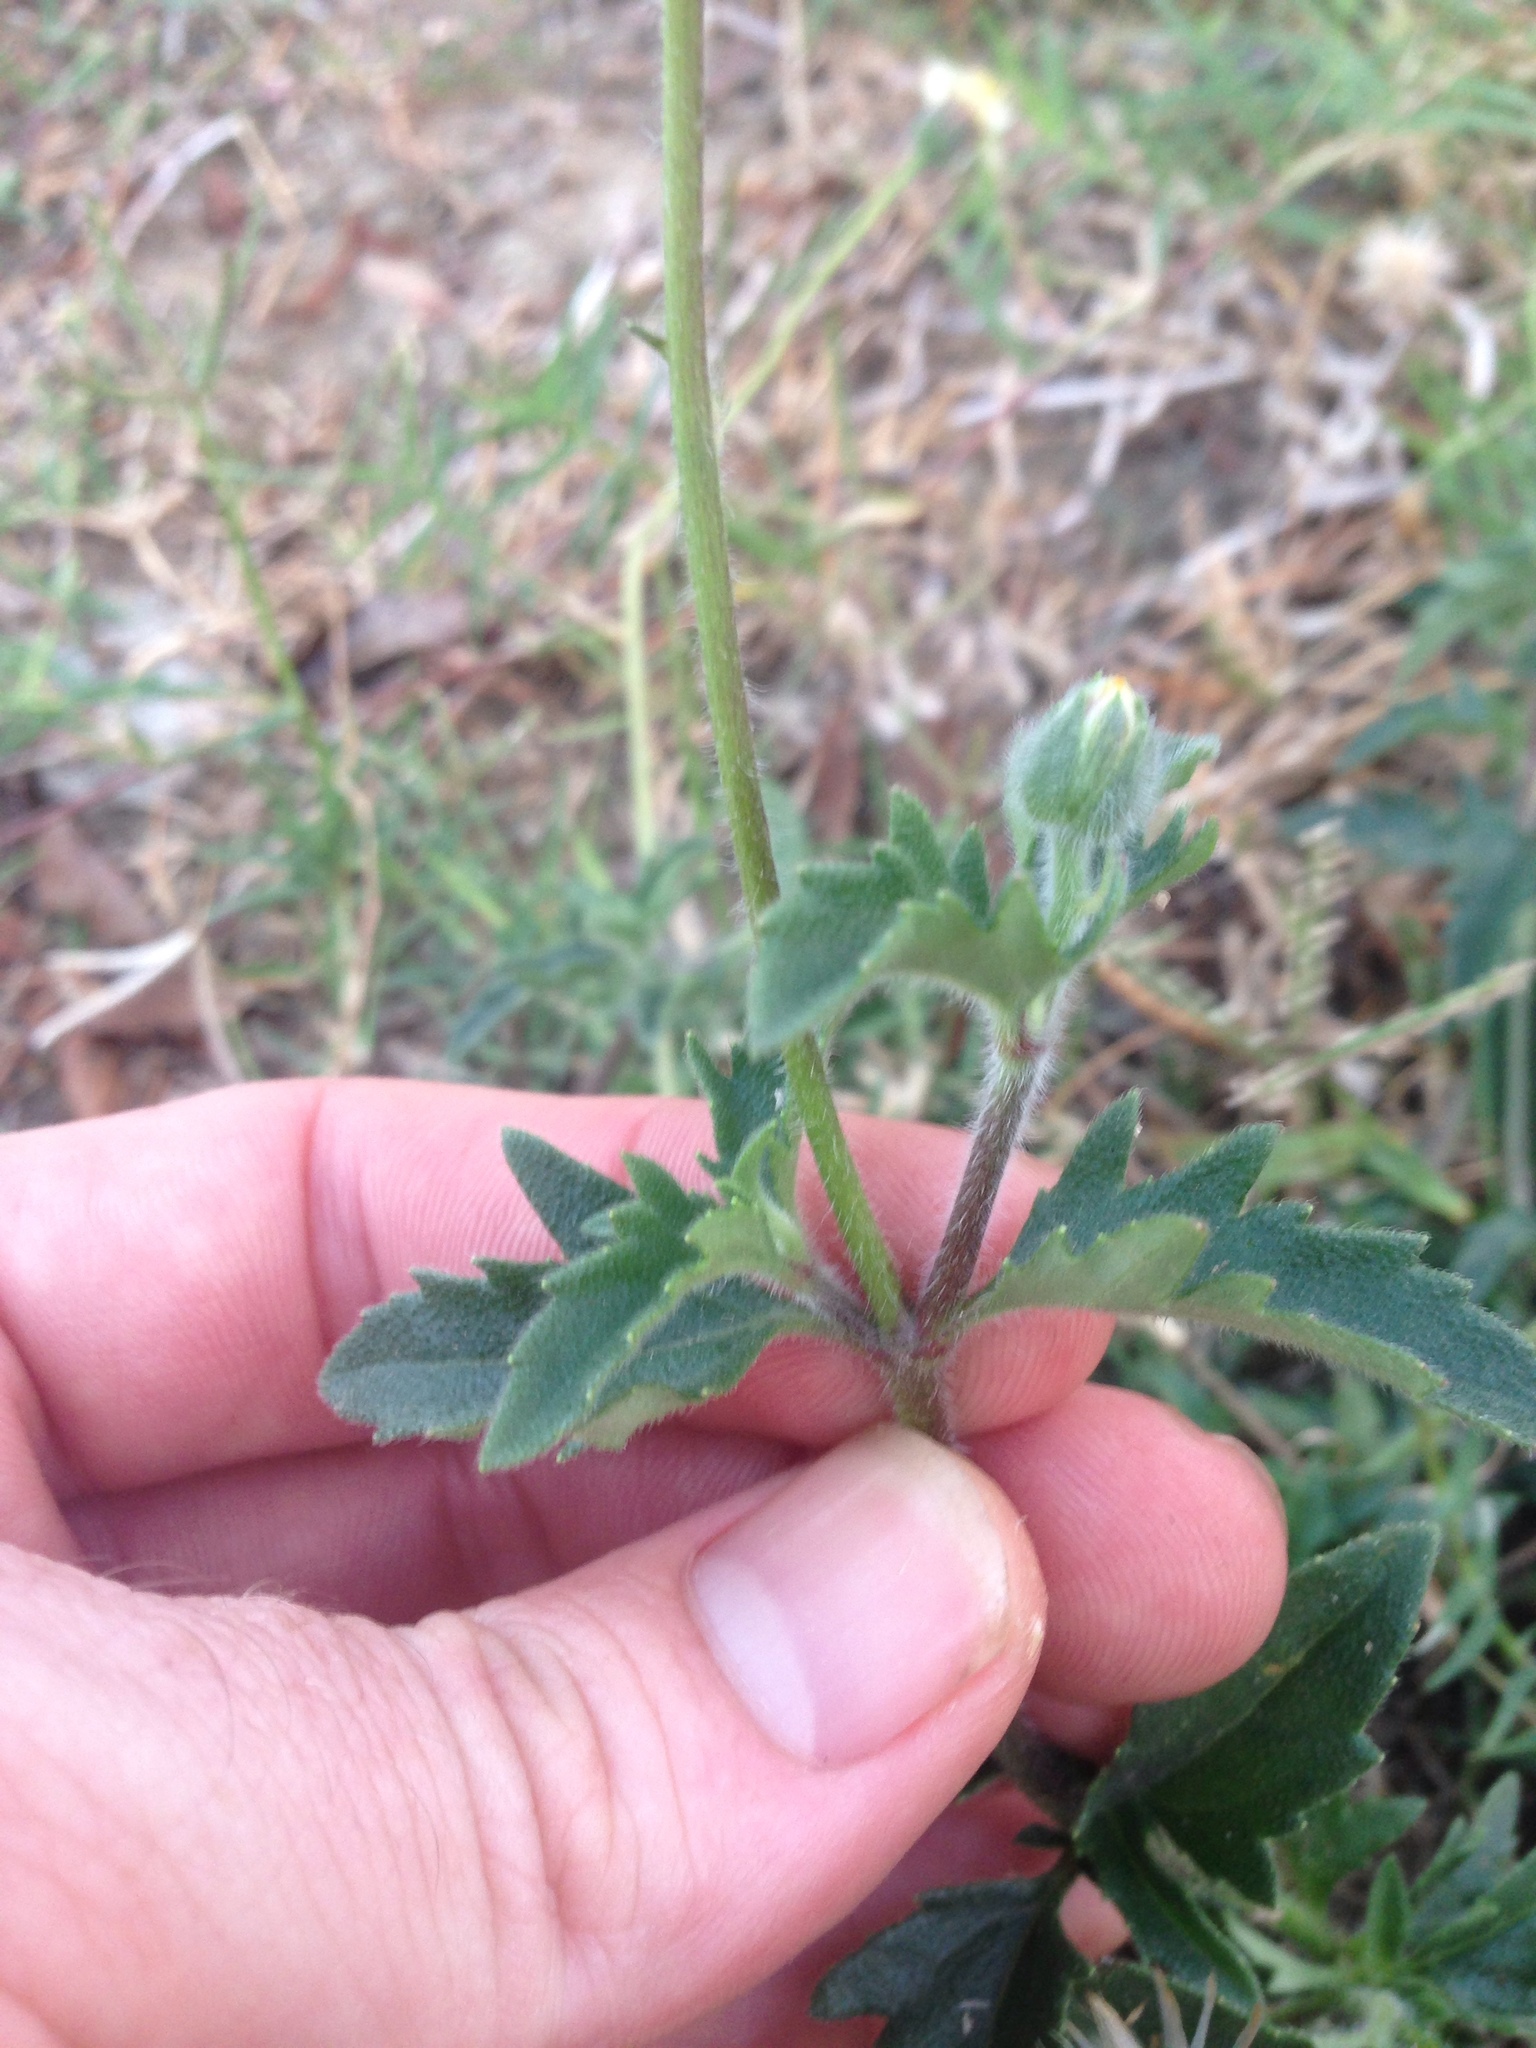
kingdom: Plantae
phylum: Tracheophyta
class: Magnoliopsida
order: Asterales
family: Asteraceae
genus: Tridax
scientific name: Tridax procumbens
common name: Coatbuttons
